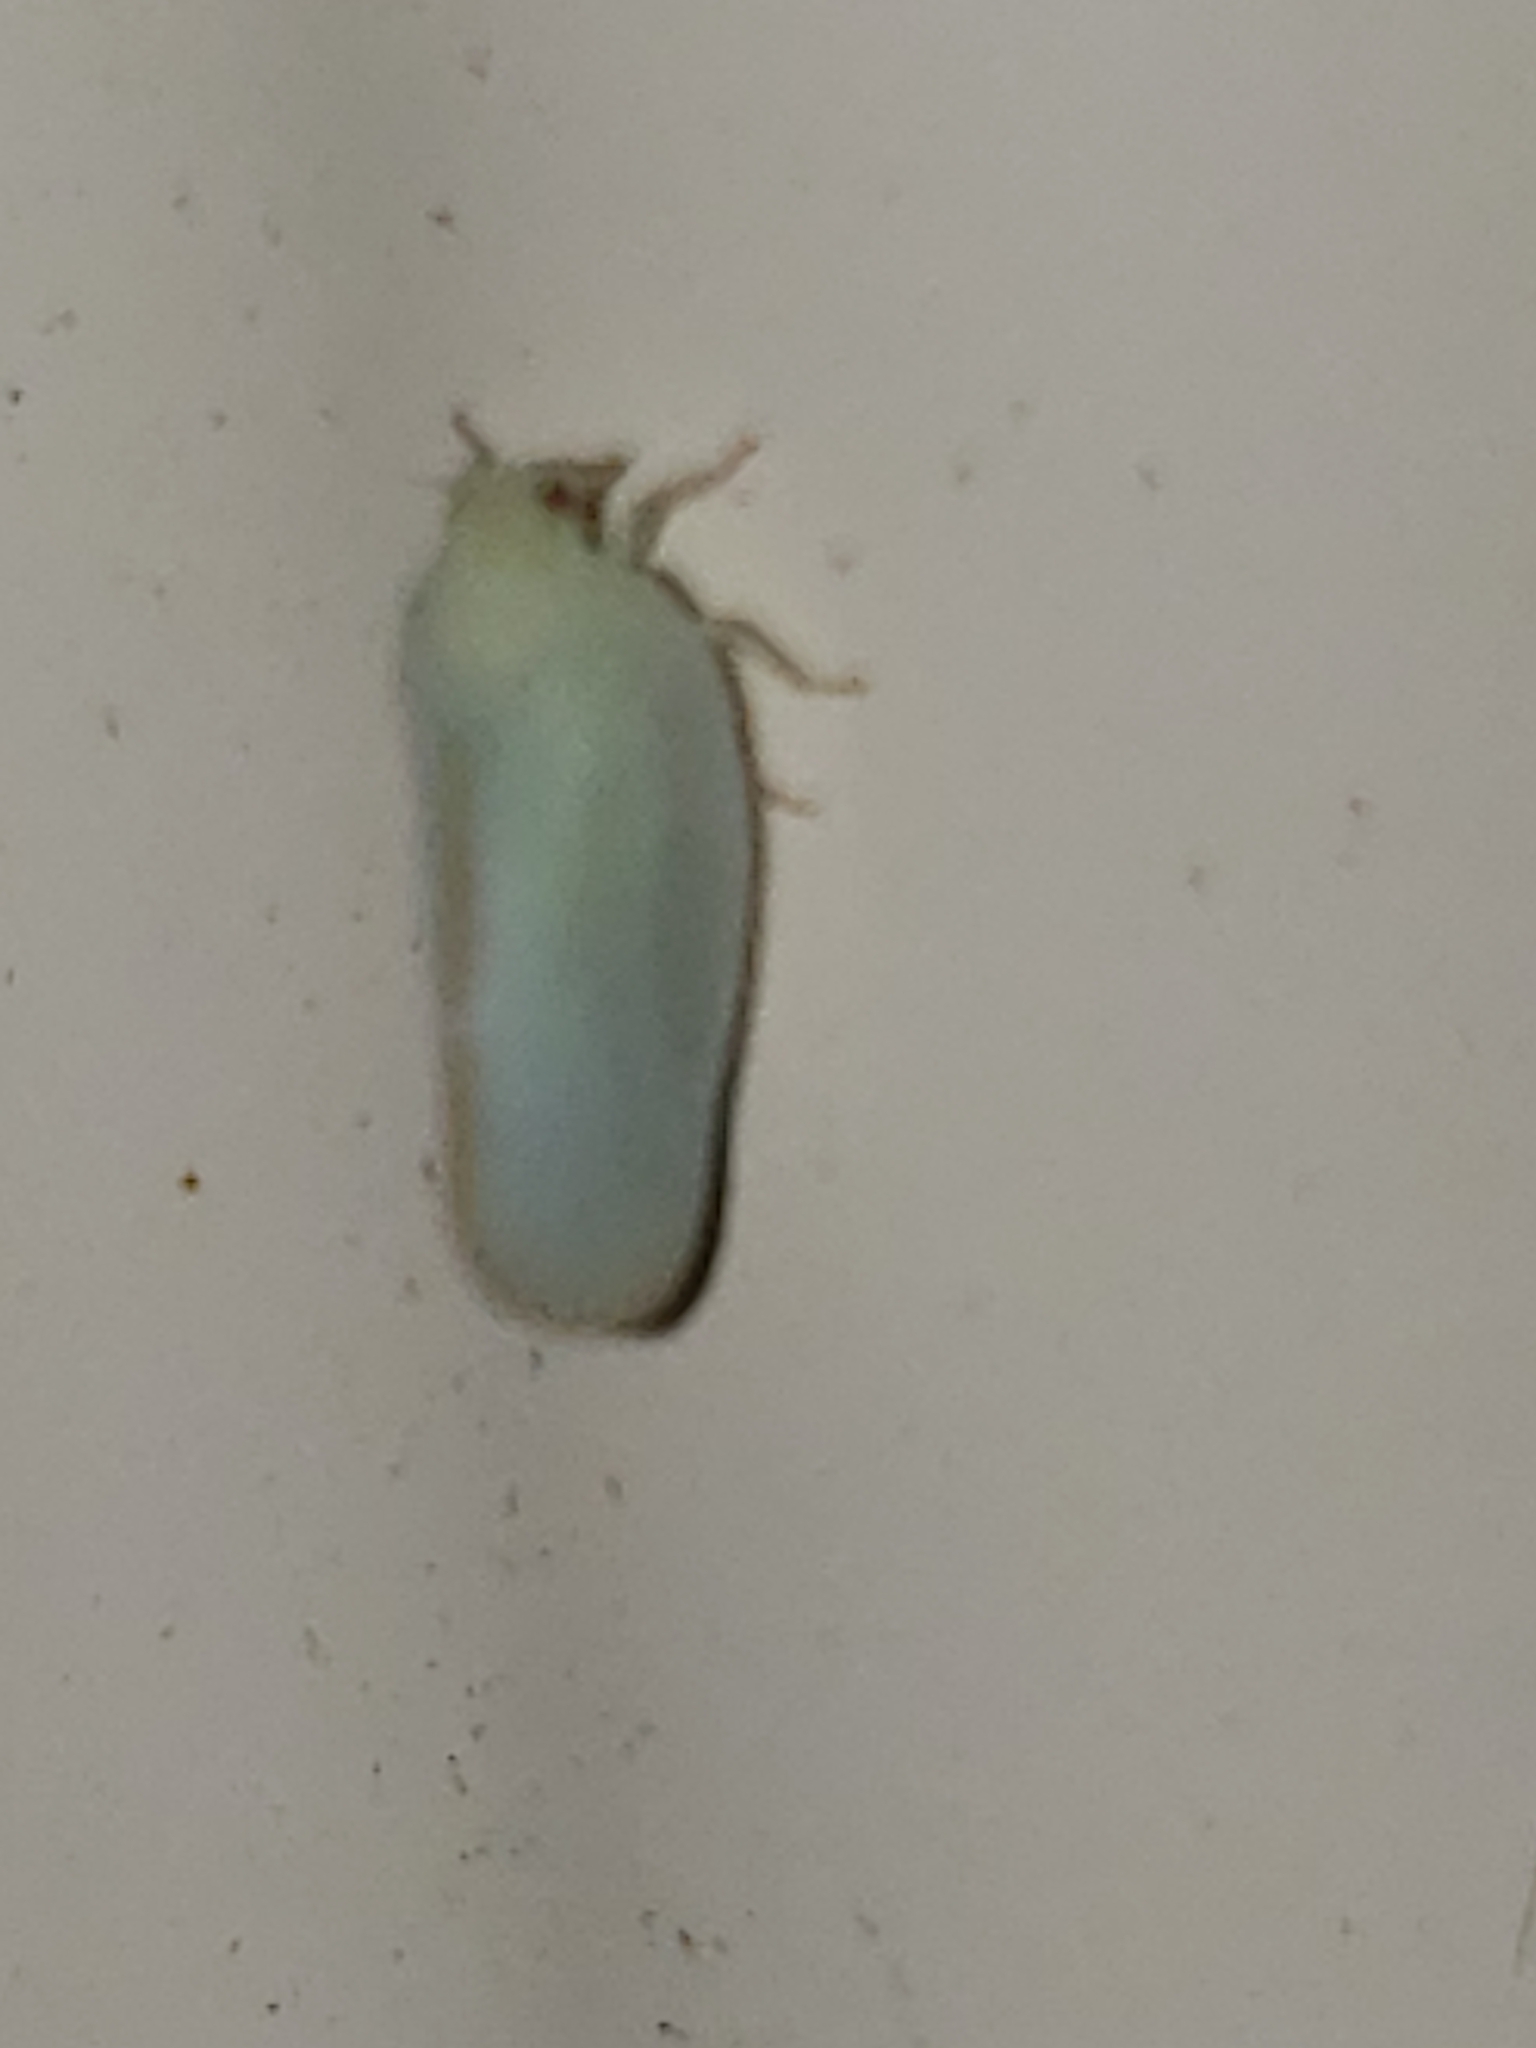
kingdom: Animalia
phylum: Arthropoda
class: Insecta
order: Hemiptera
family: Flatidae
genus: Ormenoides
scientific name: Ormenoides venusta
